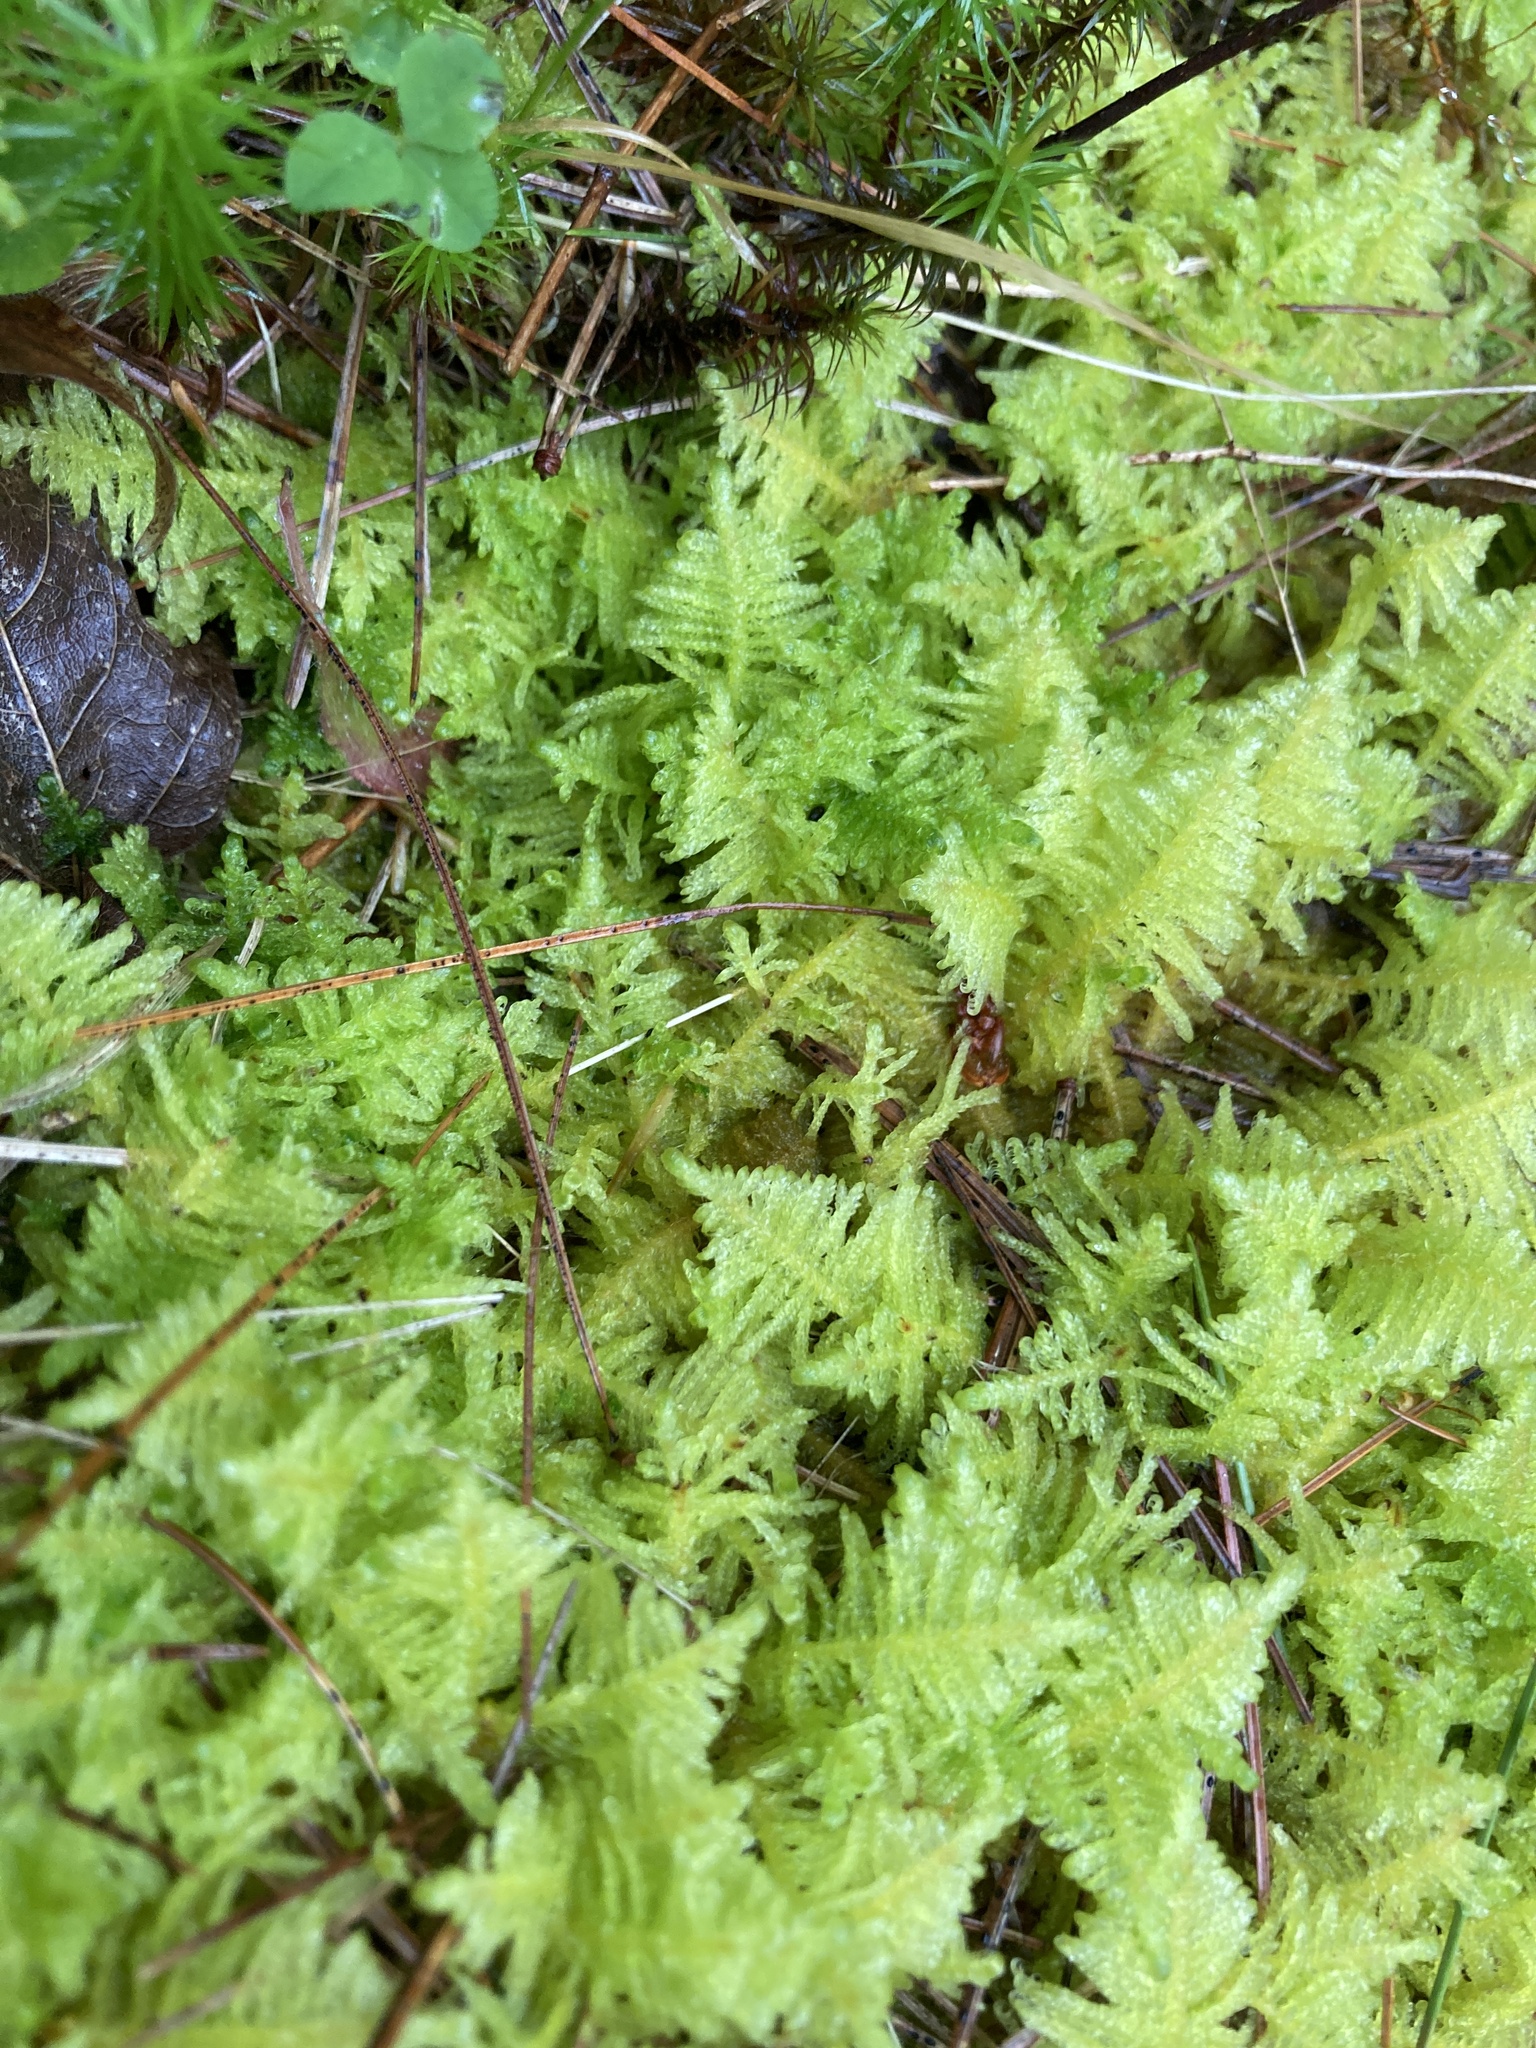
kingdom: Plantae
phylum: Bryophyta
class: Bryopsida
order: Hypnales
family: Pylaisiaceae
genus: Ptilium
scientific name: Ptilium crista-castrensis
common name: Knight's plume moss
